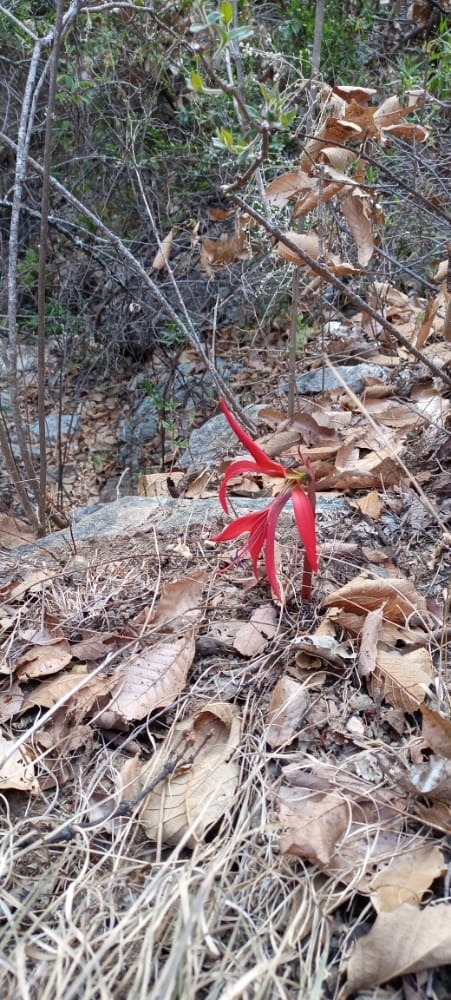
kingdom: Plantae
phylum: Tracheophyta
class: Liliopsida
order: Asparagales
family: Amaryllidaceae
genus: Sprekelia
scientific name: Sprekelia formosissima
